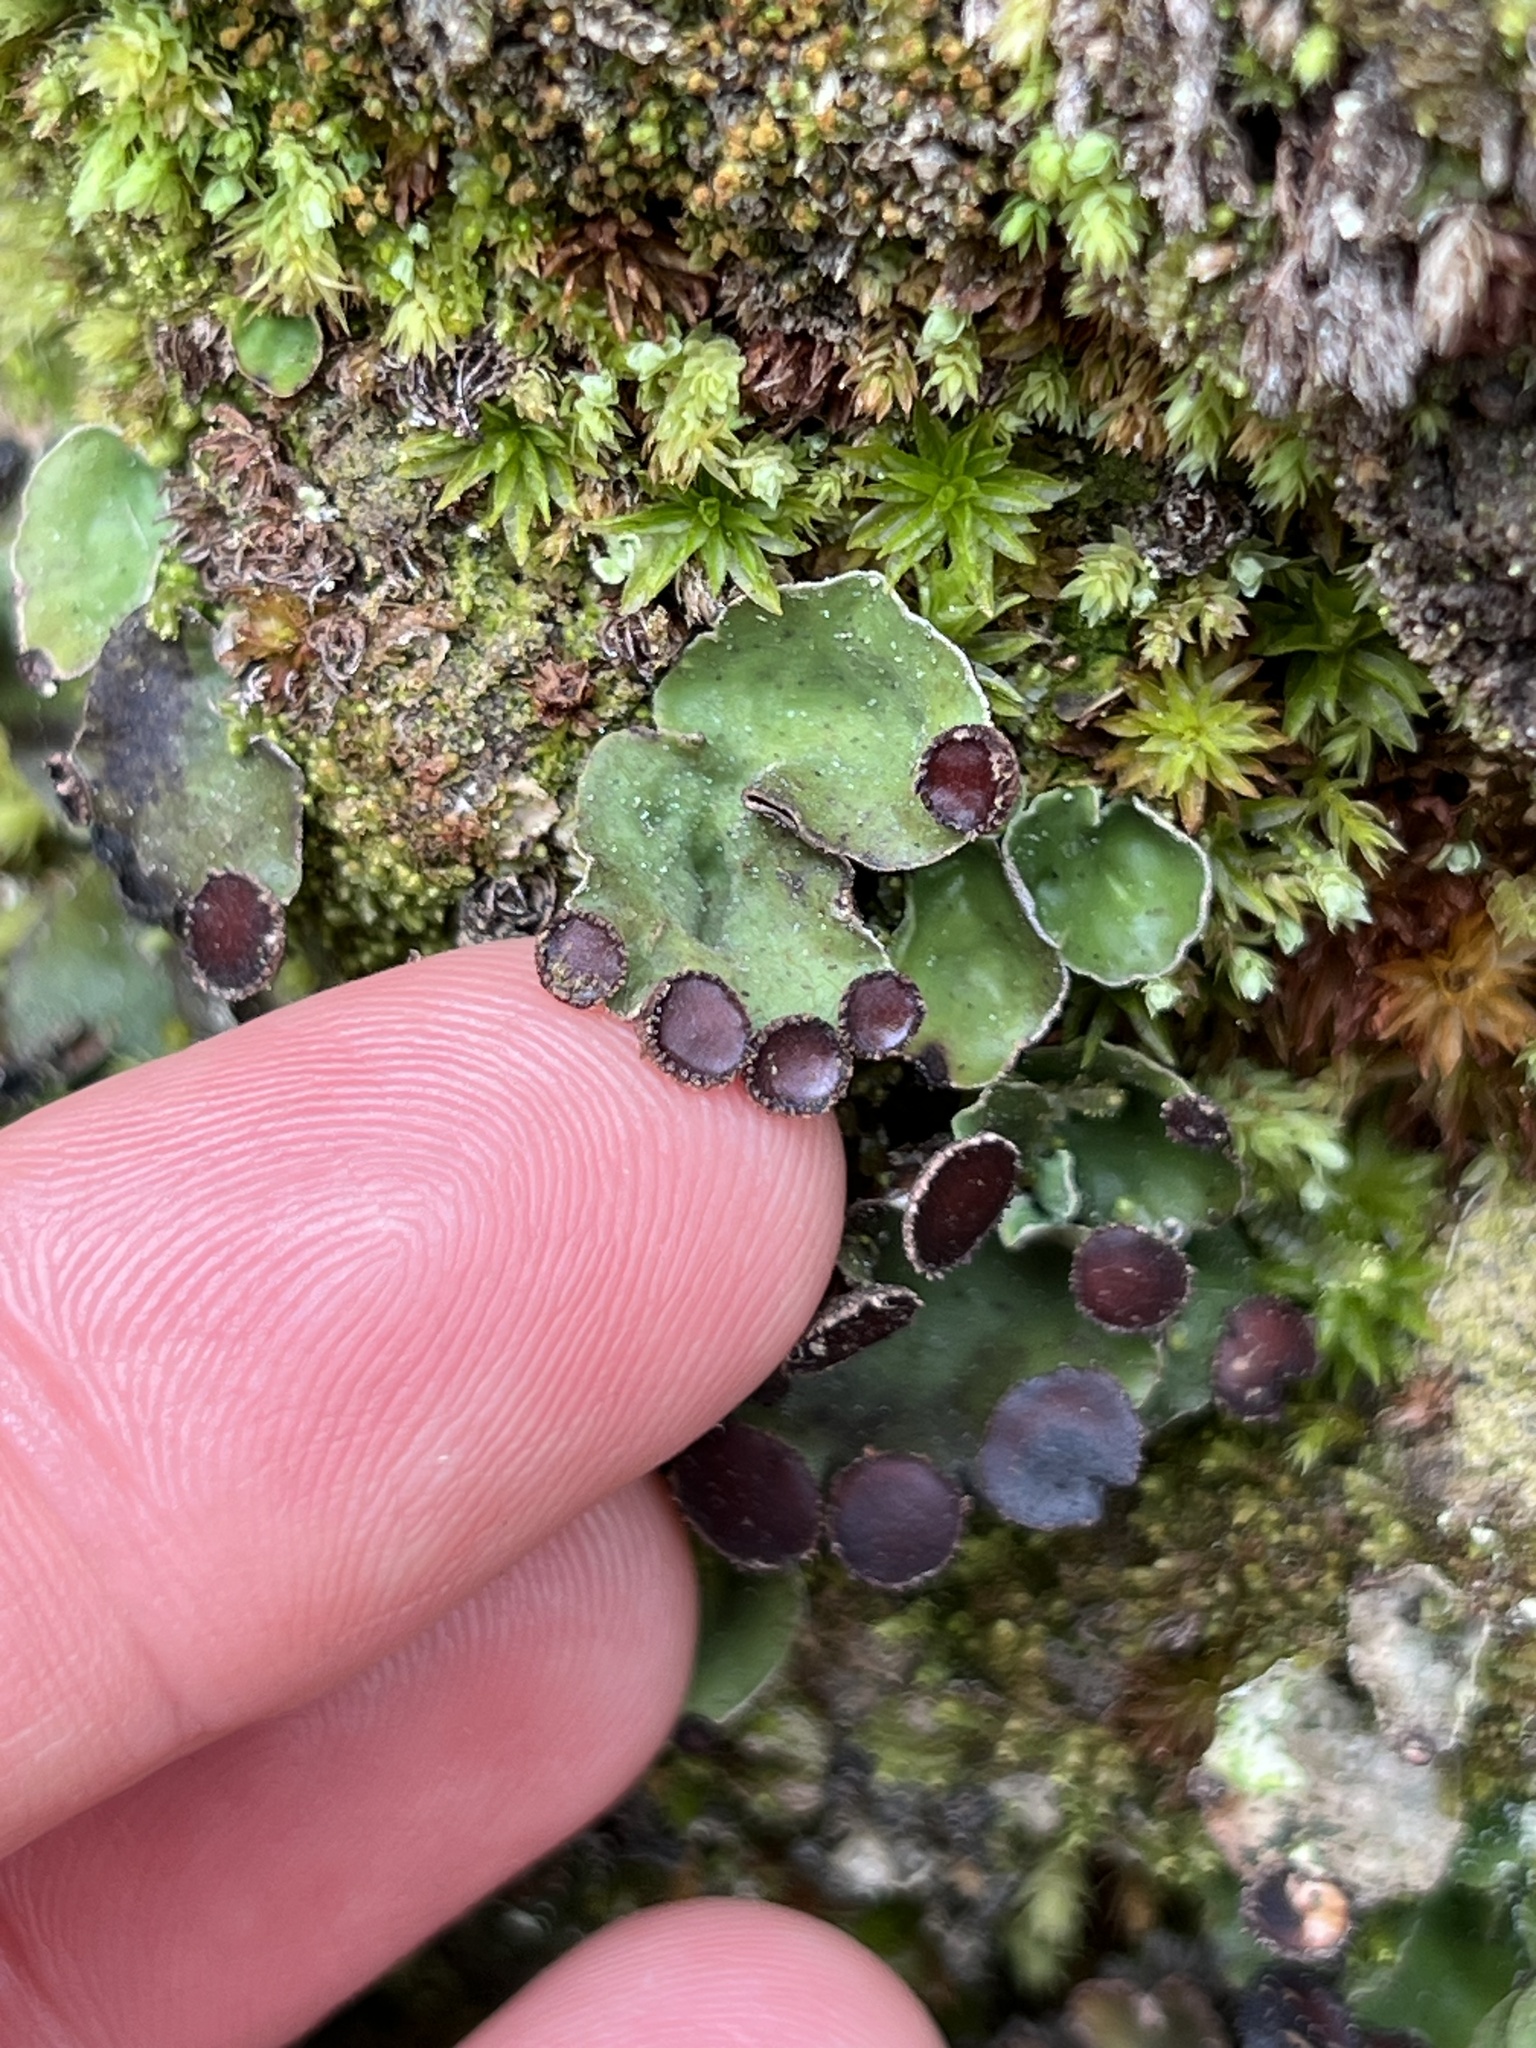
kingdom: Fungi
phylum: Ascomycota
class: Lecanoromycetes
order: Peltigerales
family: Peltigeraceae
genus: Peltigera
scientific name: Peltigera venosa
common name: Pixie gowns lichen
